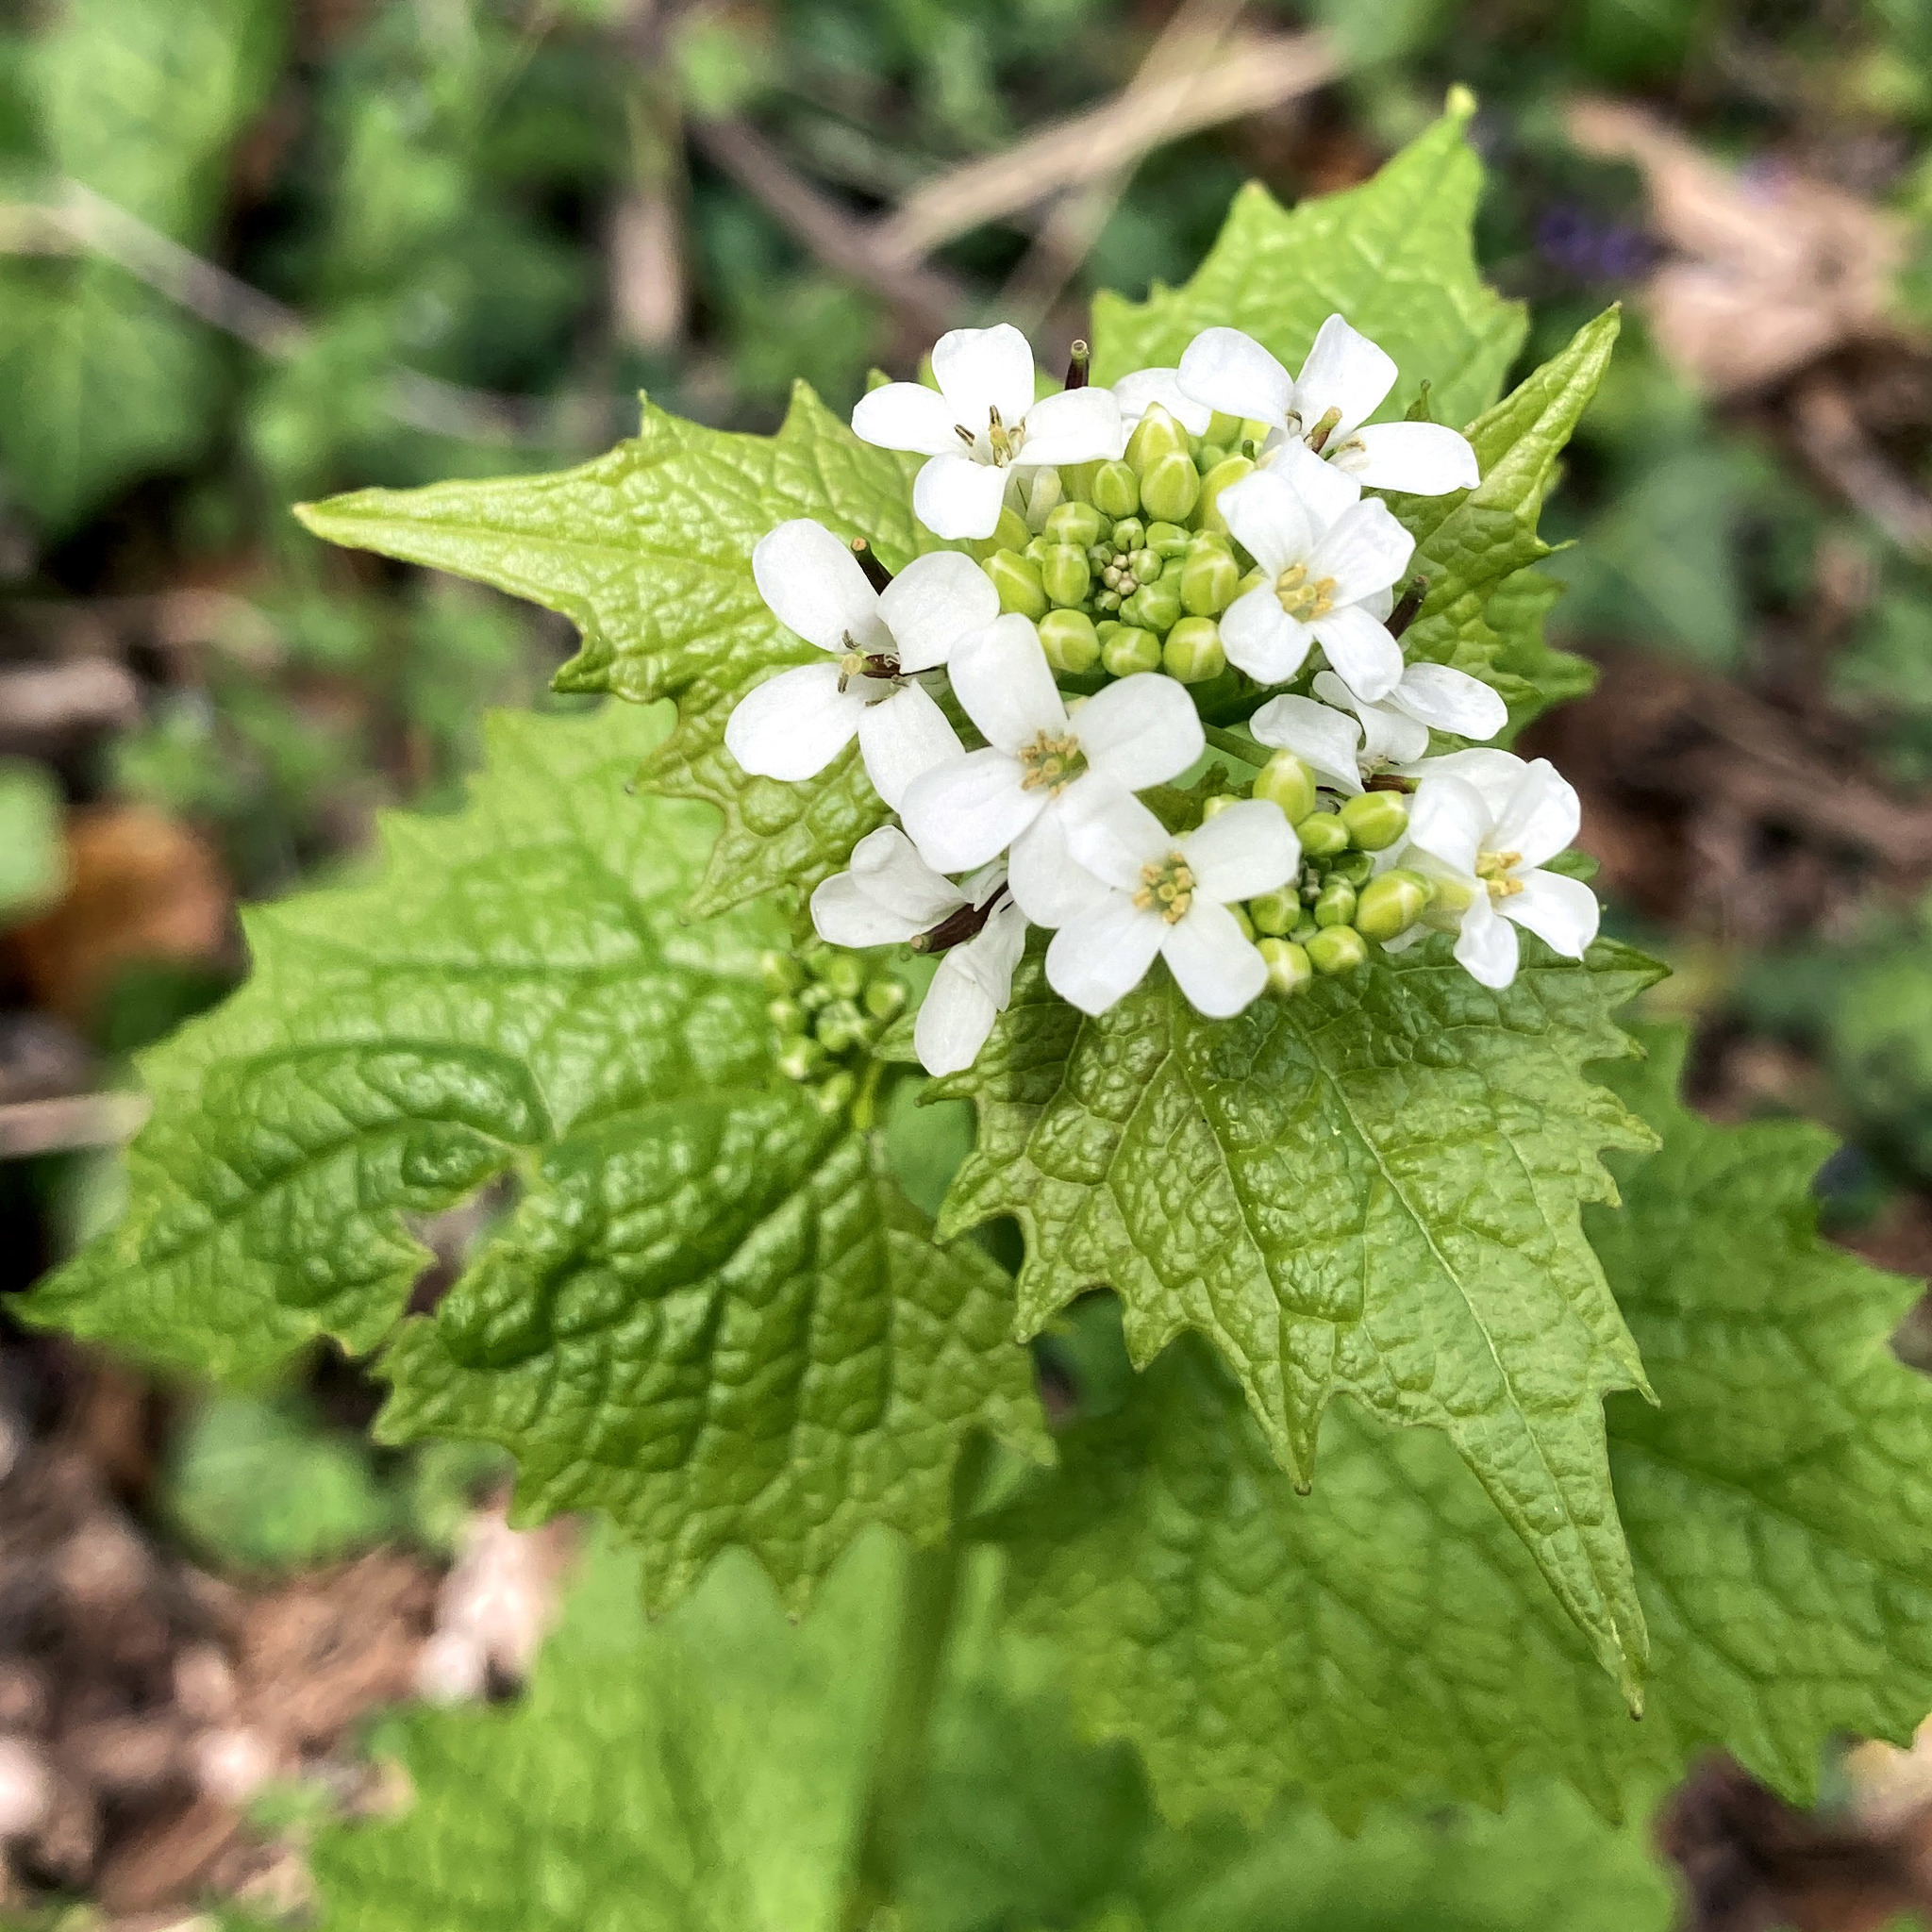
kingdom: Plantae
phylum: Tracheophyta
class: Magnoliopsida
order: Brassicales
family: Brassicaceae
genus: Alliaria
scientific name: Alliaria petiolata
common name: Garlic mustard
